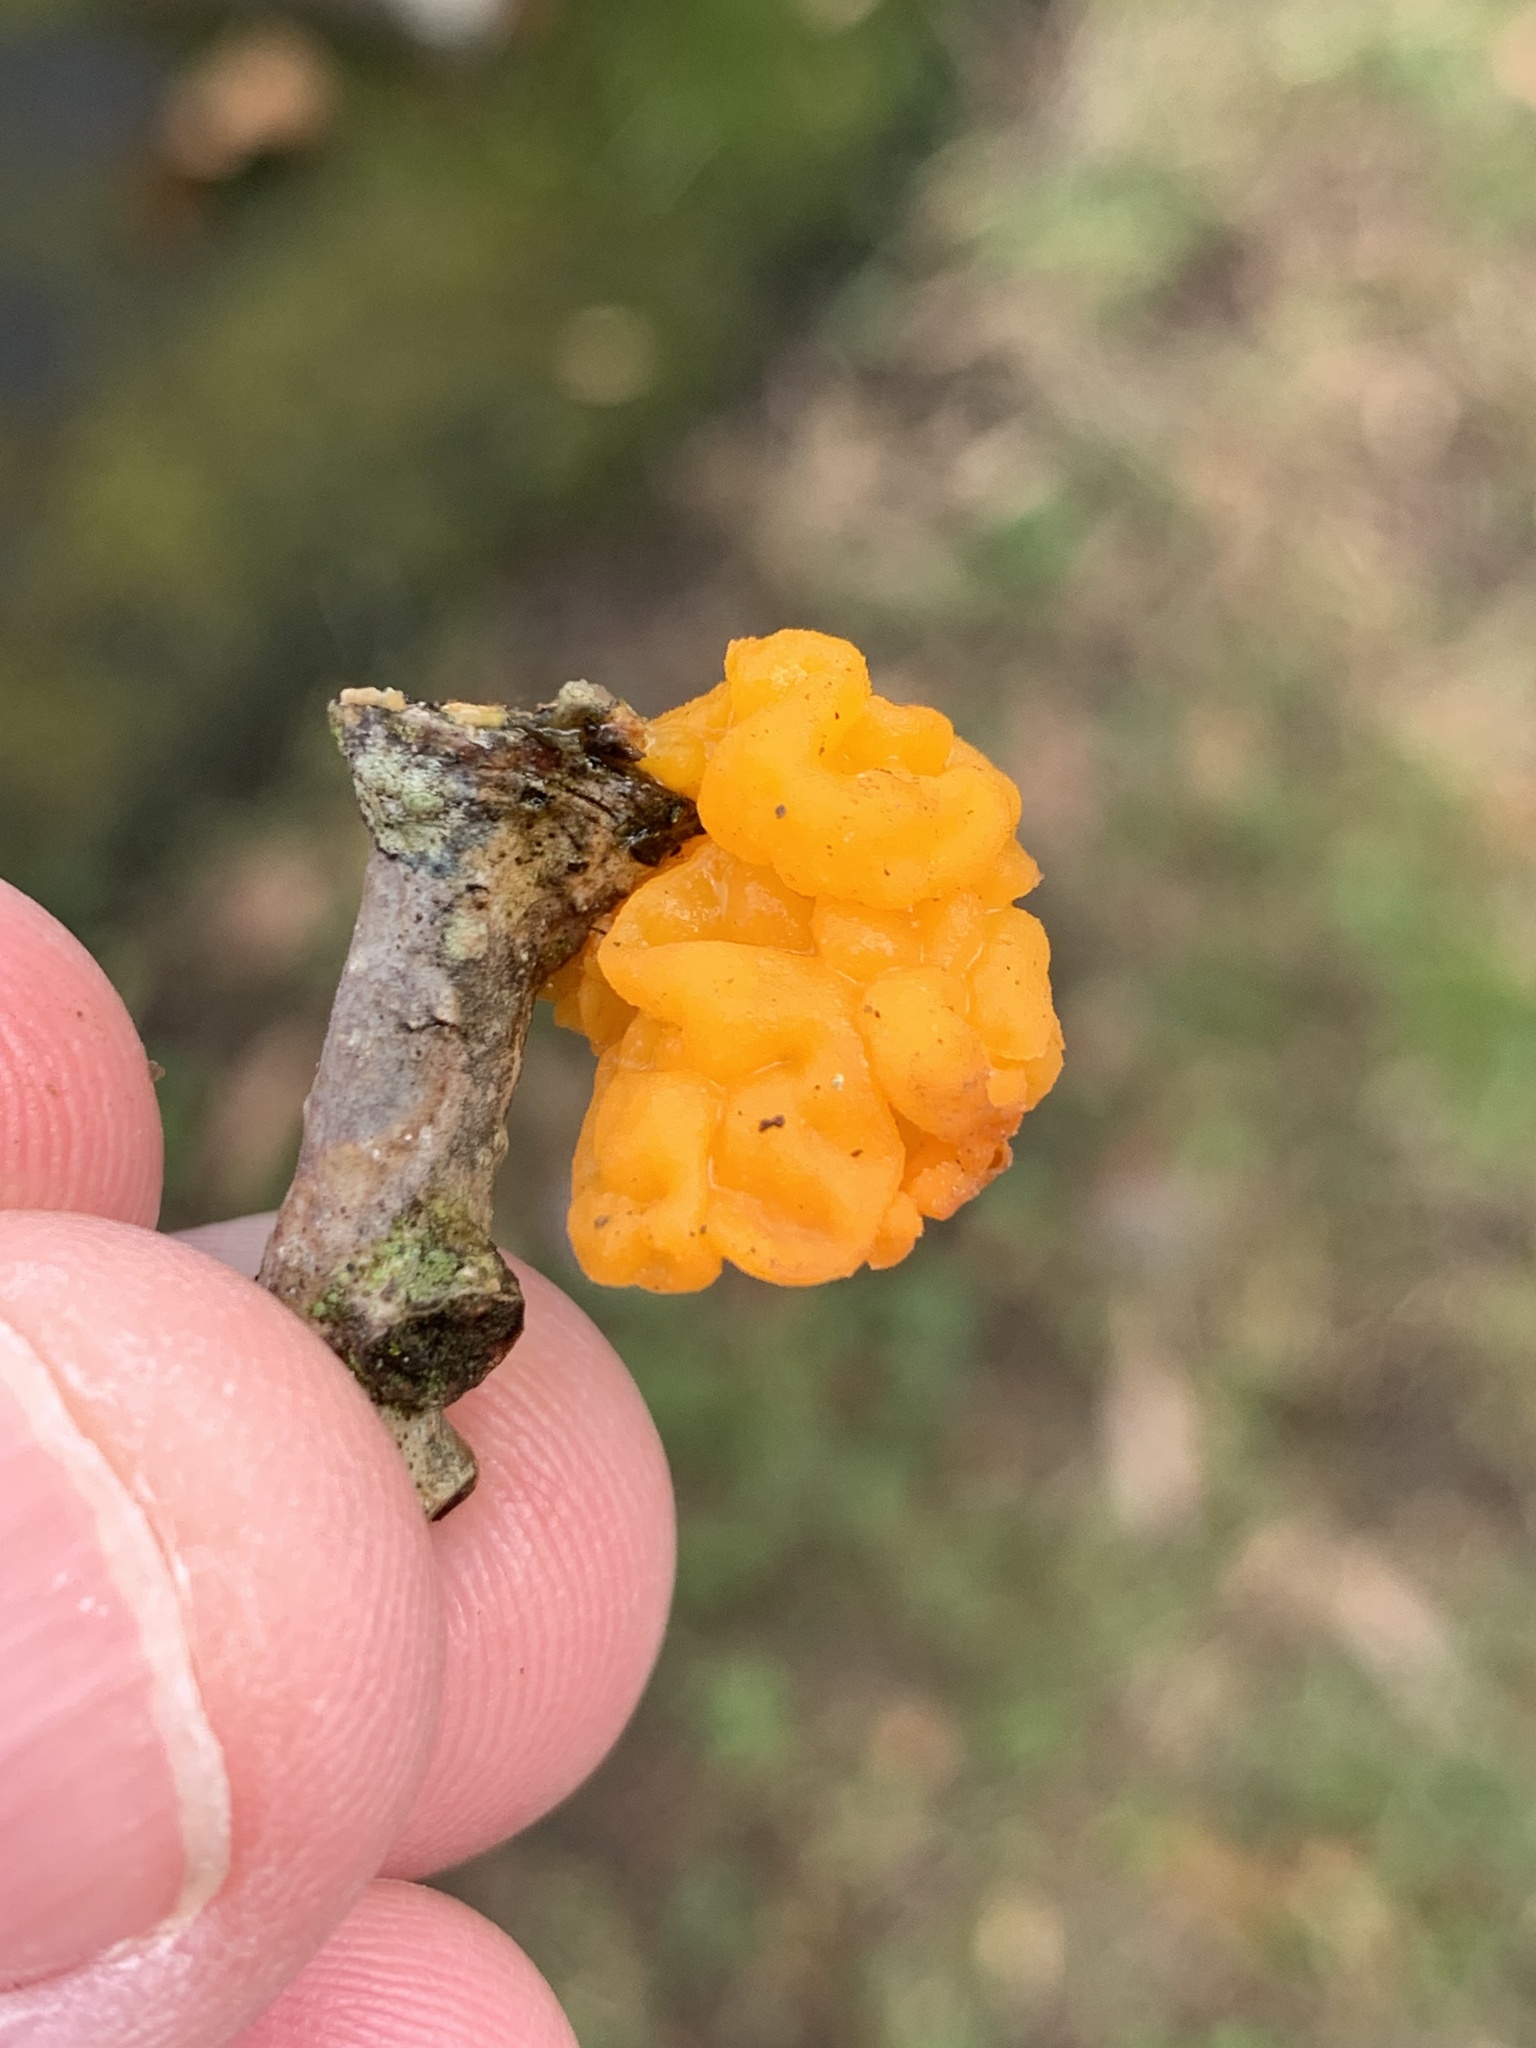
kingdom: Fungi
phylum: Basidiomycota
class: Tremellomycetes
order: Tremellales
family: Tremellaceae
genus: Tremella
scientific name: Tremella mesenterica
